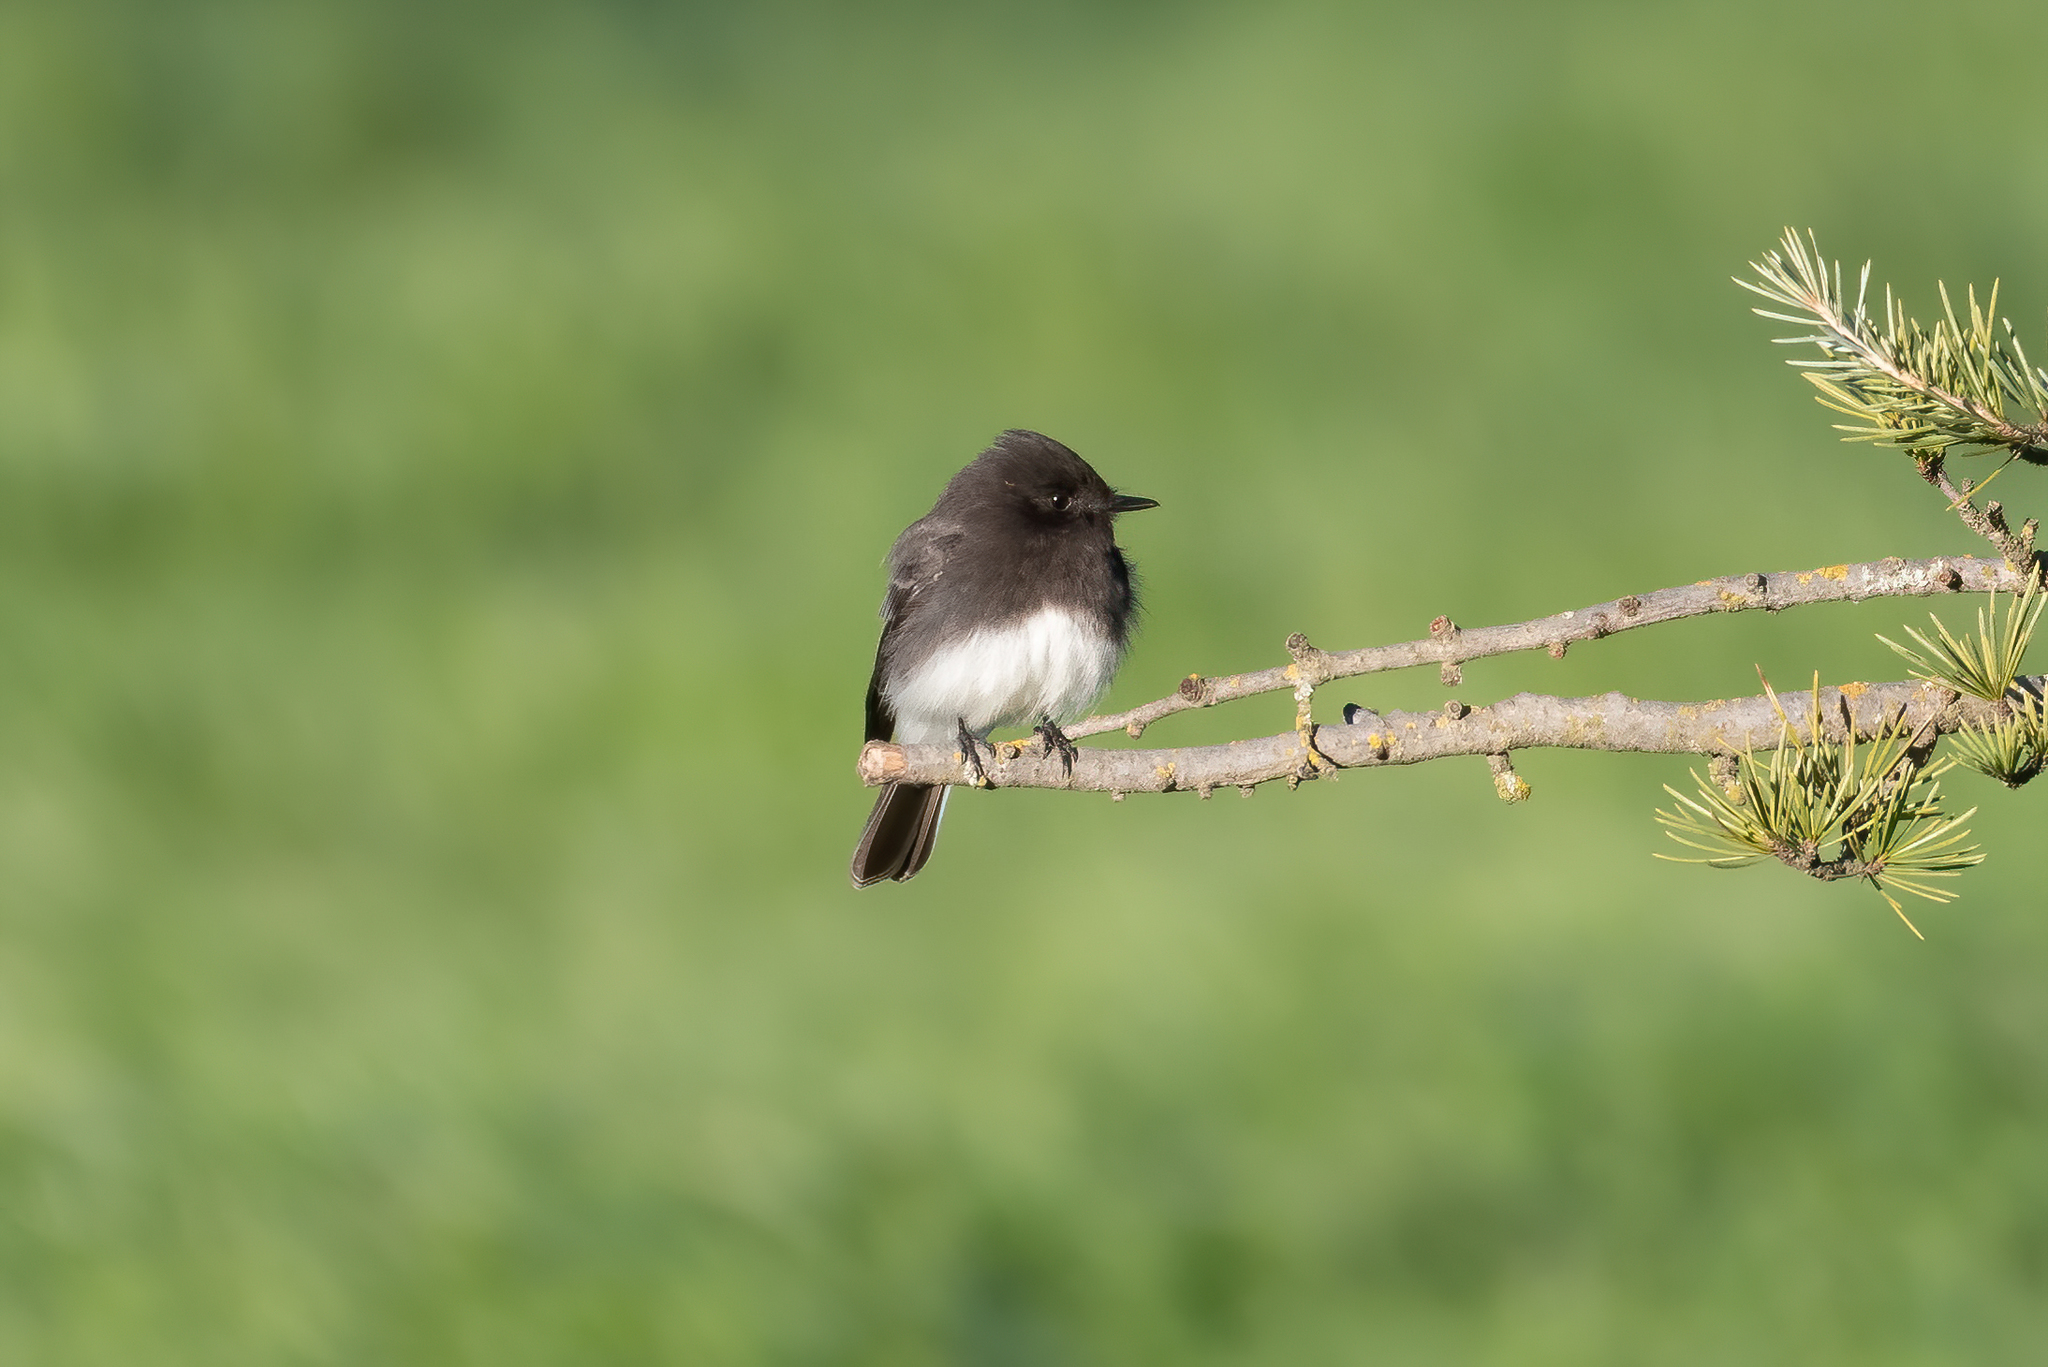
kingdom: Animalia
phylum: Chordata
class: Aves
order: Passeriformes
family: Tyrannidae
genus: Sayornis
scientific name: Sayornis nigricans
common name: Black phoebe
